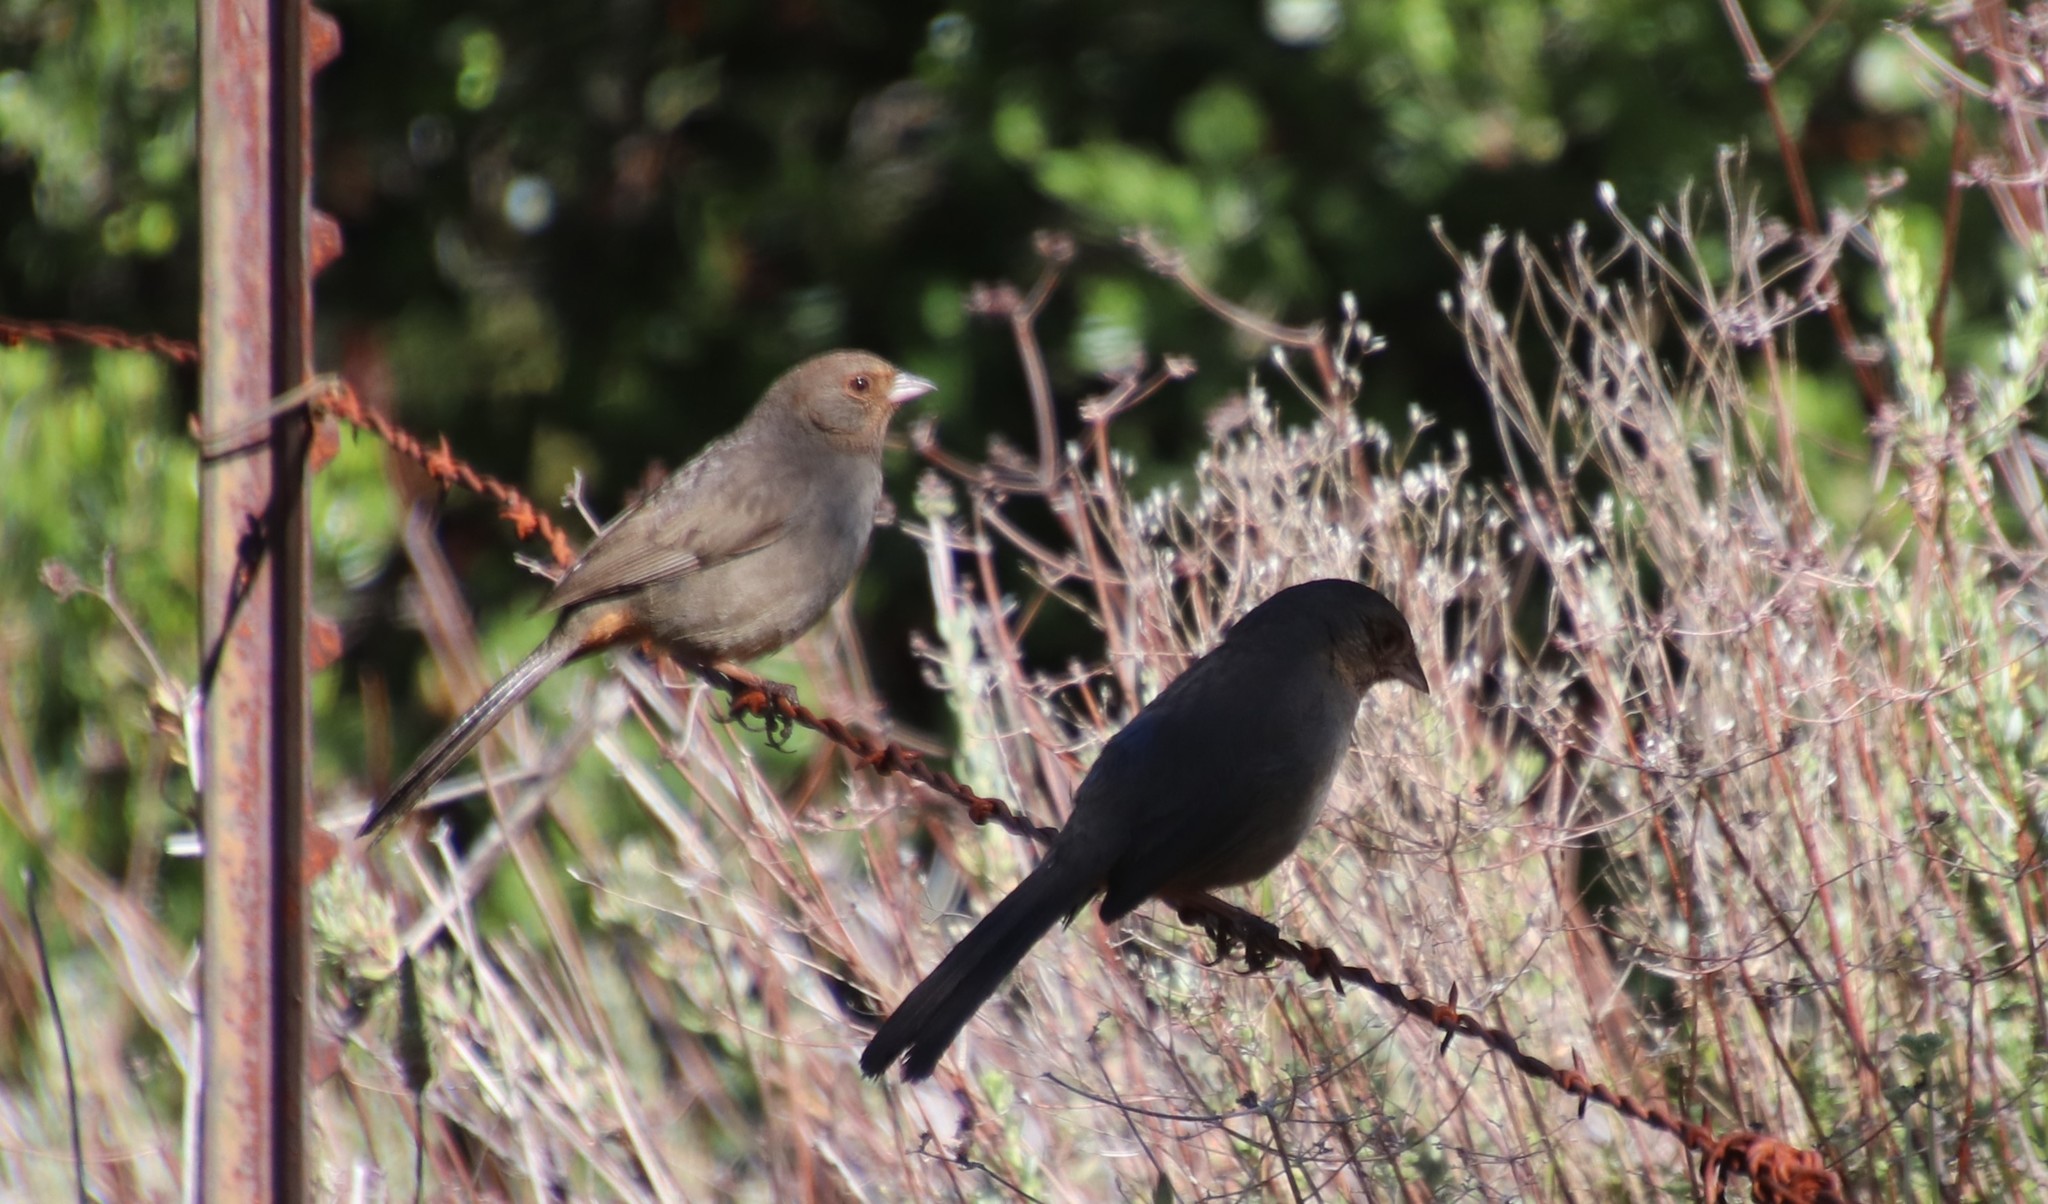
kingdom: Animalia
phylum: Chordata
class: Aves
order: Passeriformes
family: Passerellidae
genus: Melozone
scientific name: Melozone crissalis
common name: California towhee
